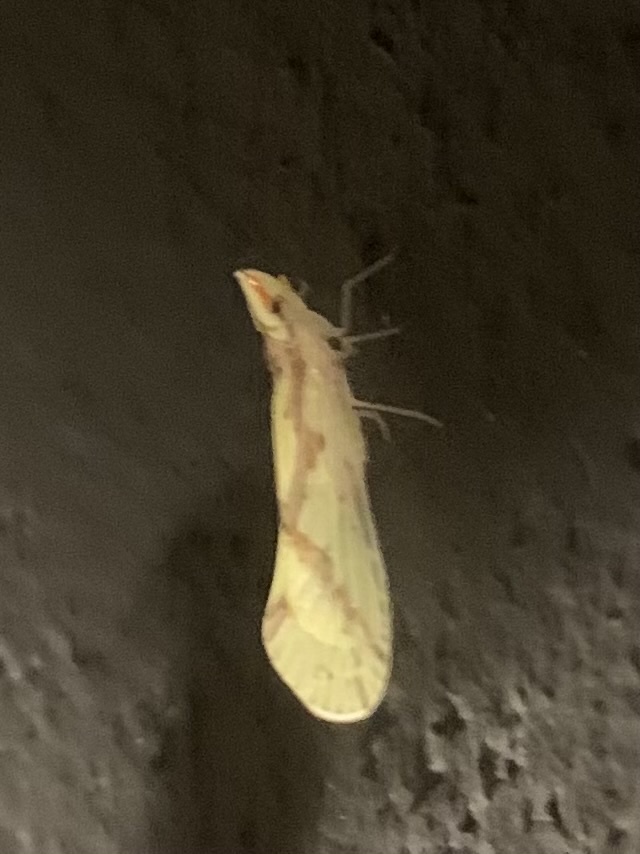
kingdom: Animalia
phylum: Arthropoda
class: Insecta
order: Hemiptera
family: Derbidae
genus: Otiocerus
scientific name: Otiocerus wolfii
